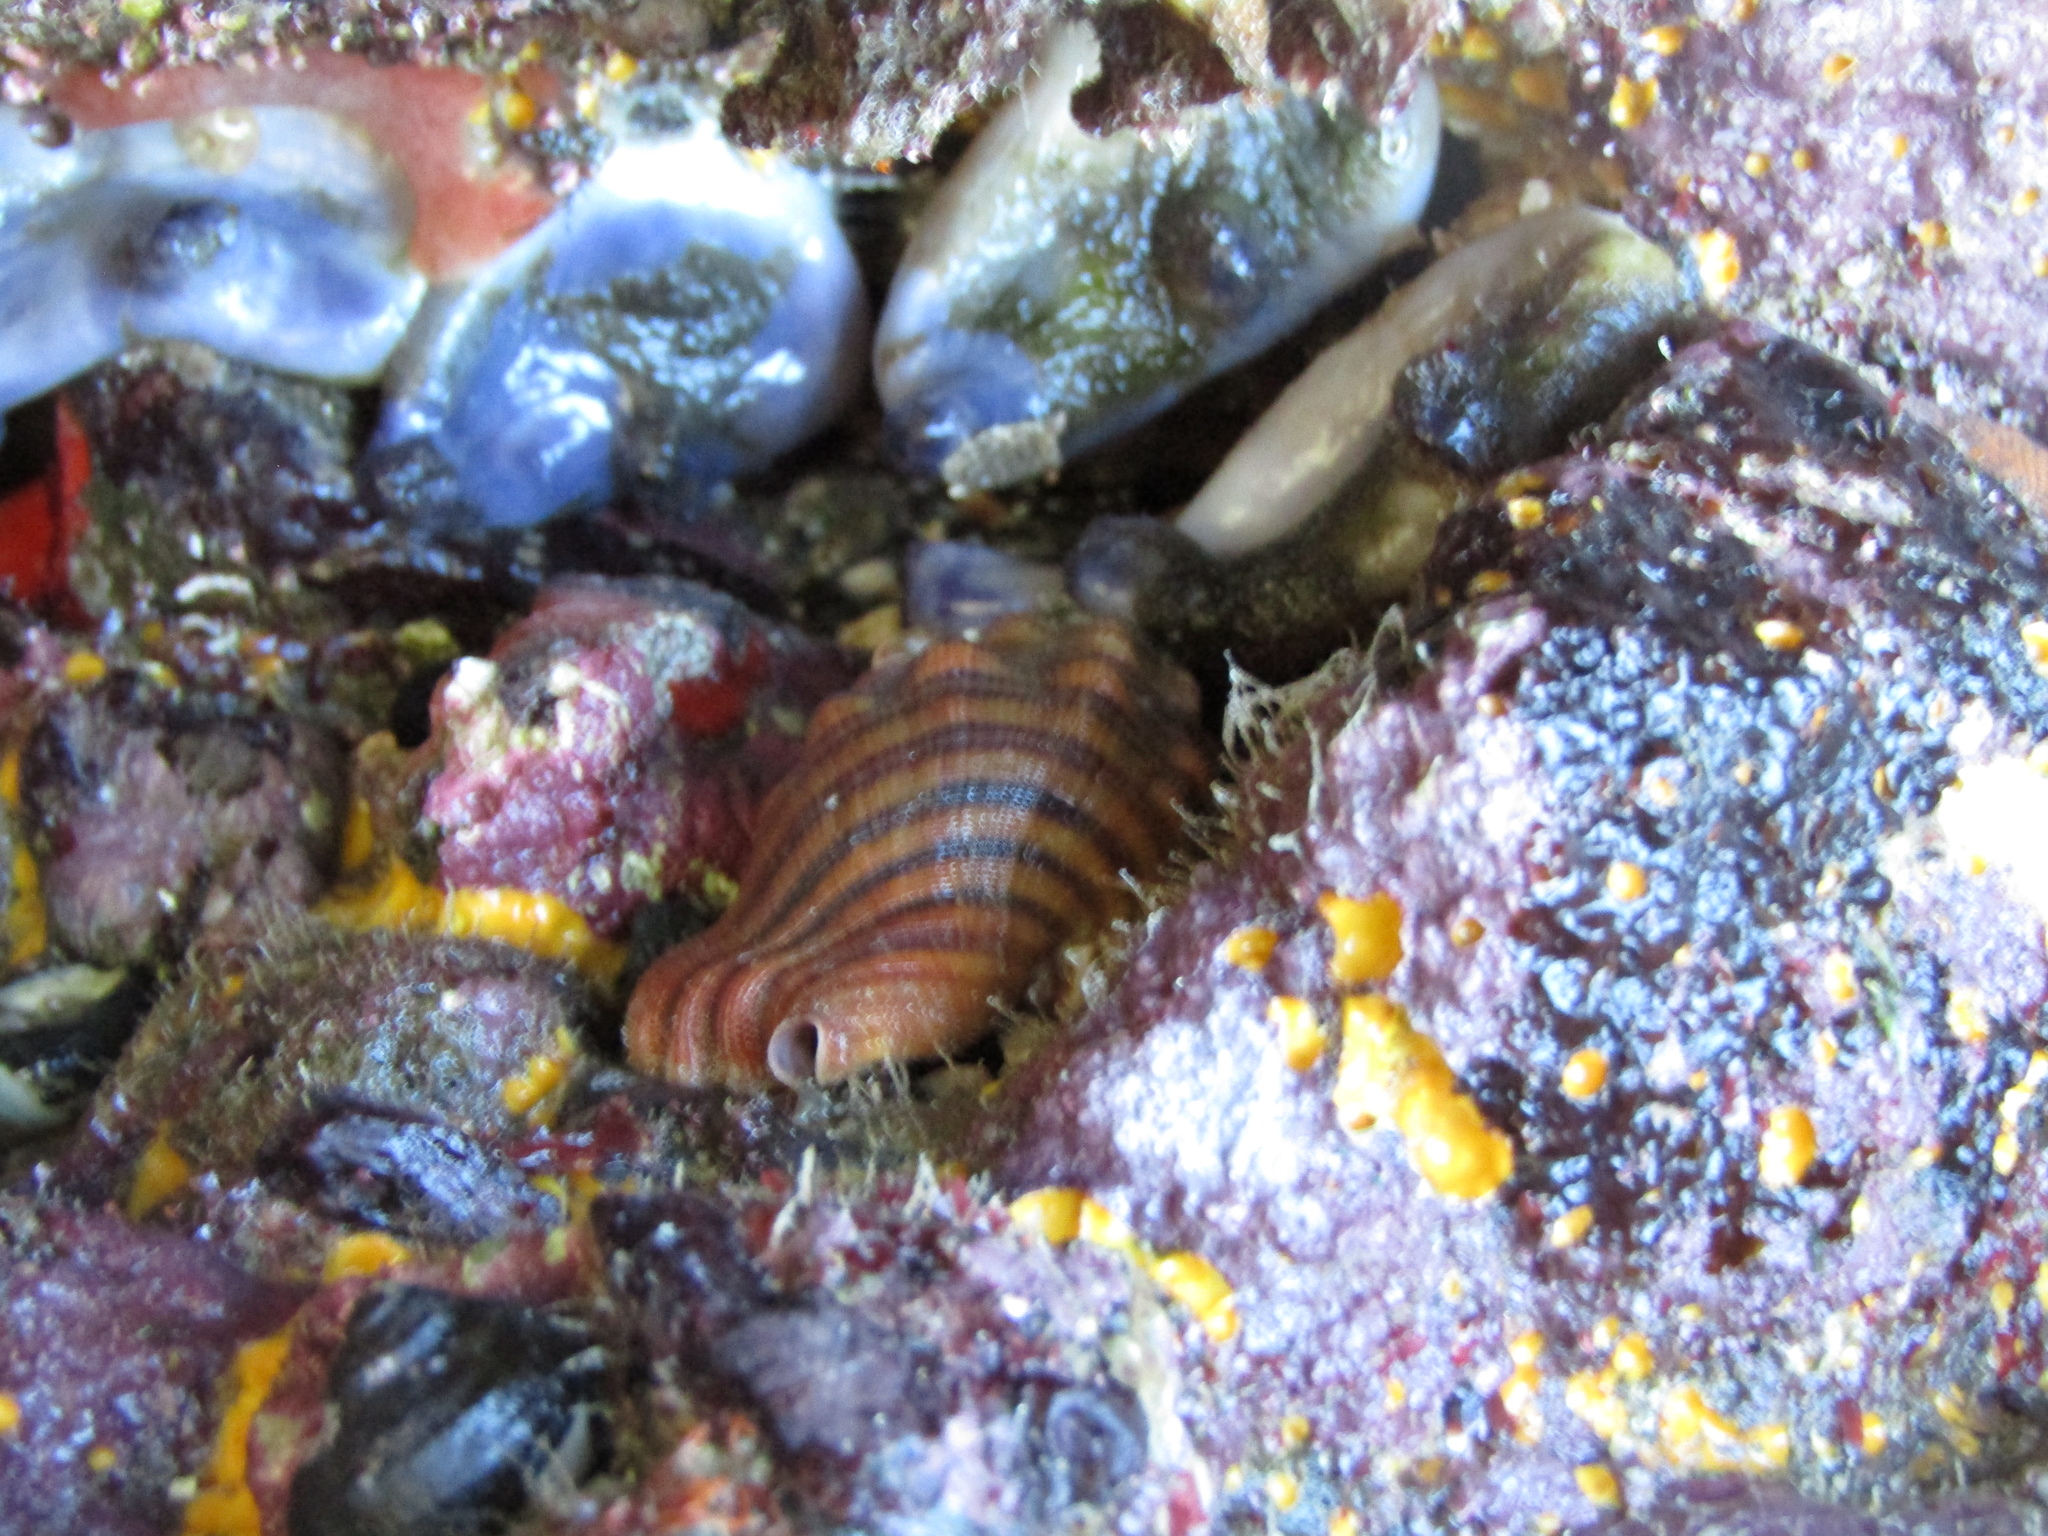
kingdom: Animalia
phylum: Mollusca
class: Gastropoda
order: Littorinimorpha
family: Cymatiidae
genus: Cabestana
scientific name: Cabestana spengleri
